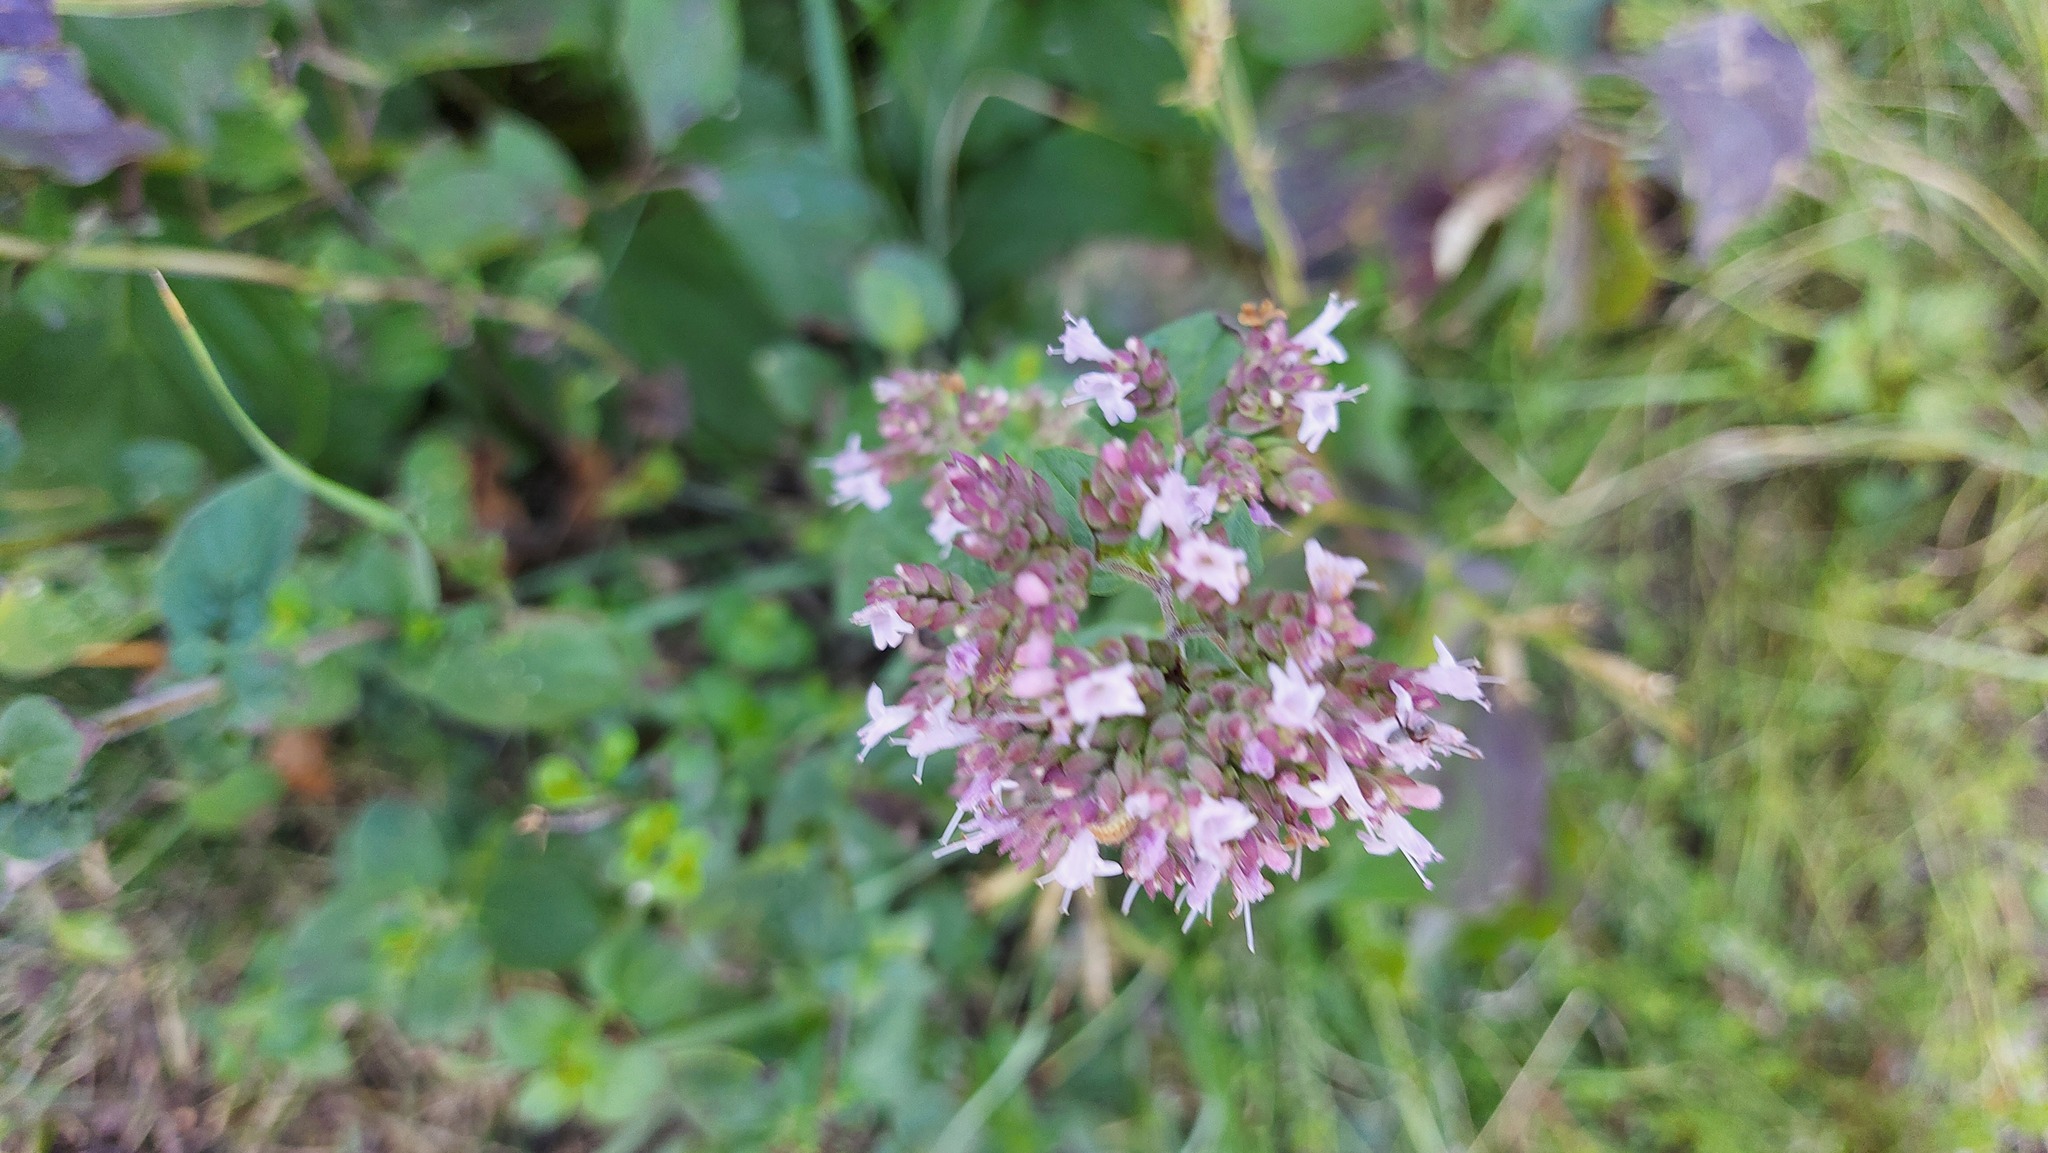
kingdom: Plantae
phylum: Tracheophyta
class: Magnoliopsida
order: Lamiales
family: Lamiaceae
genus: Origanum
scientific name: Origanum vulgare
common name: Wild marjoram
